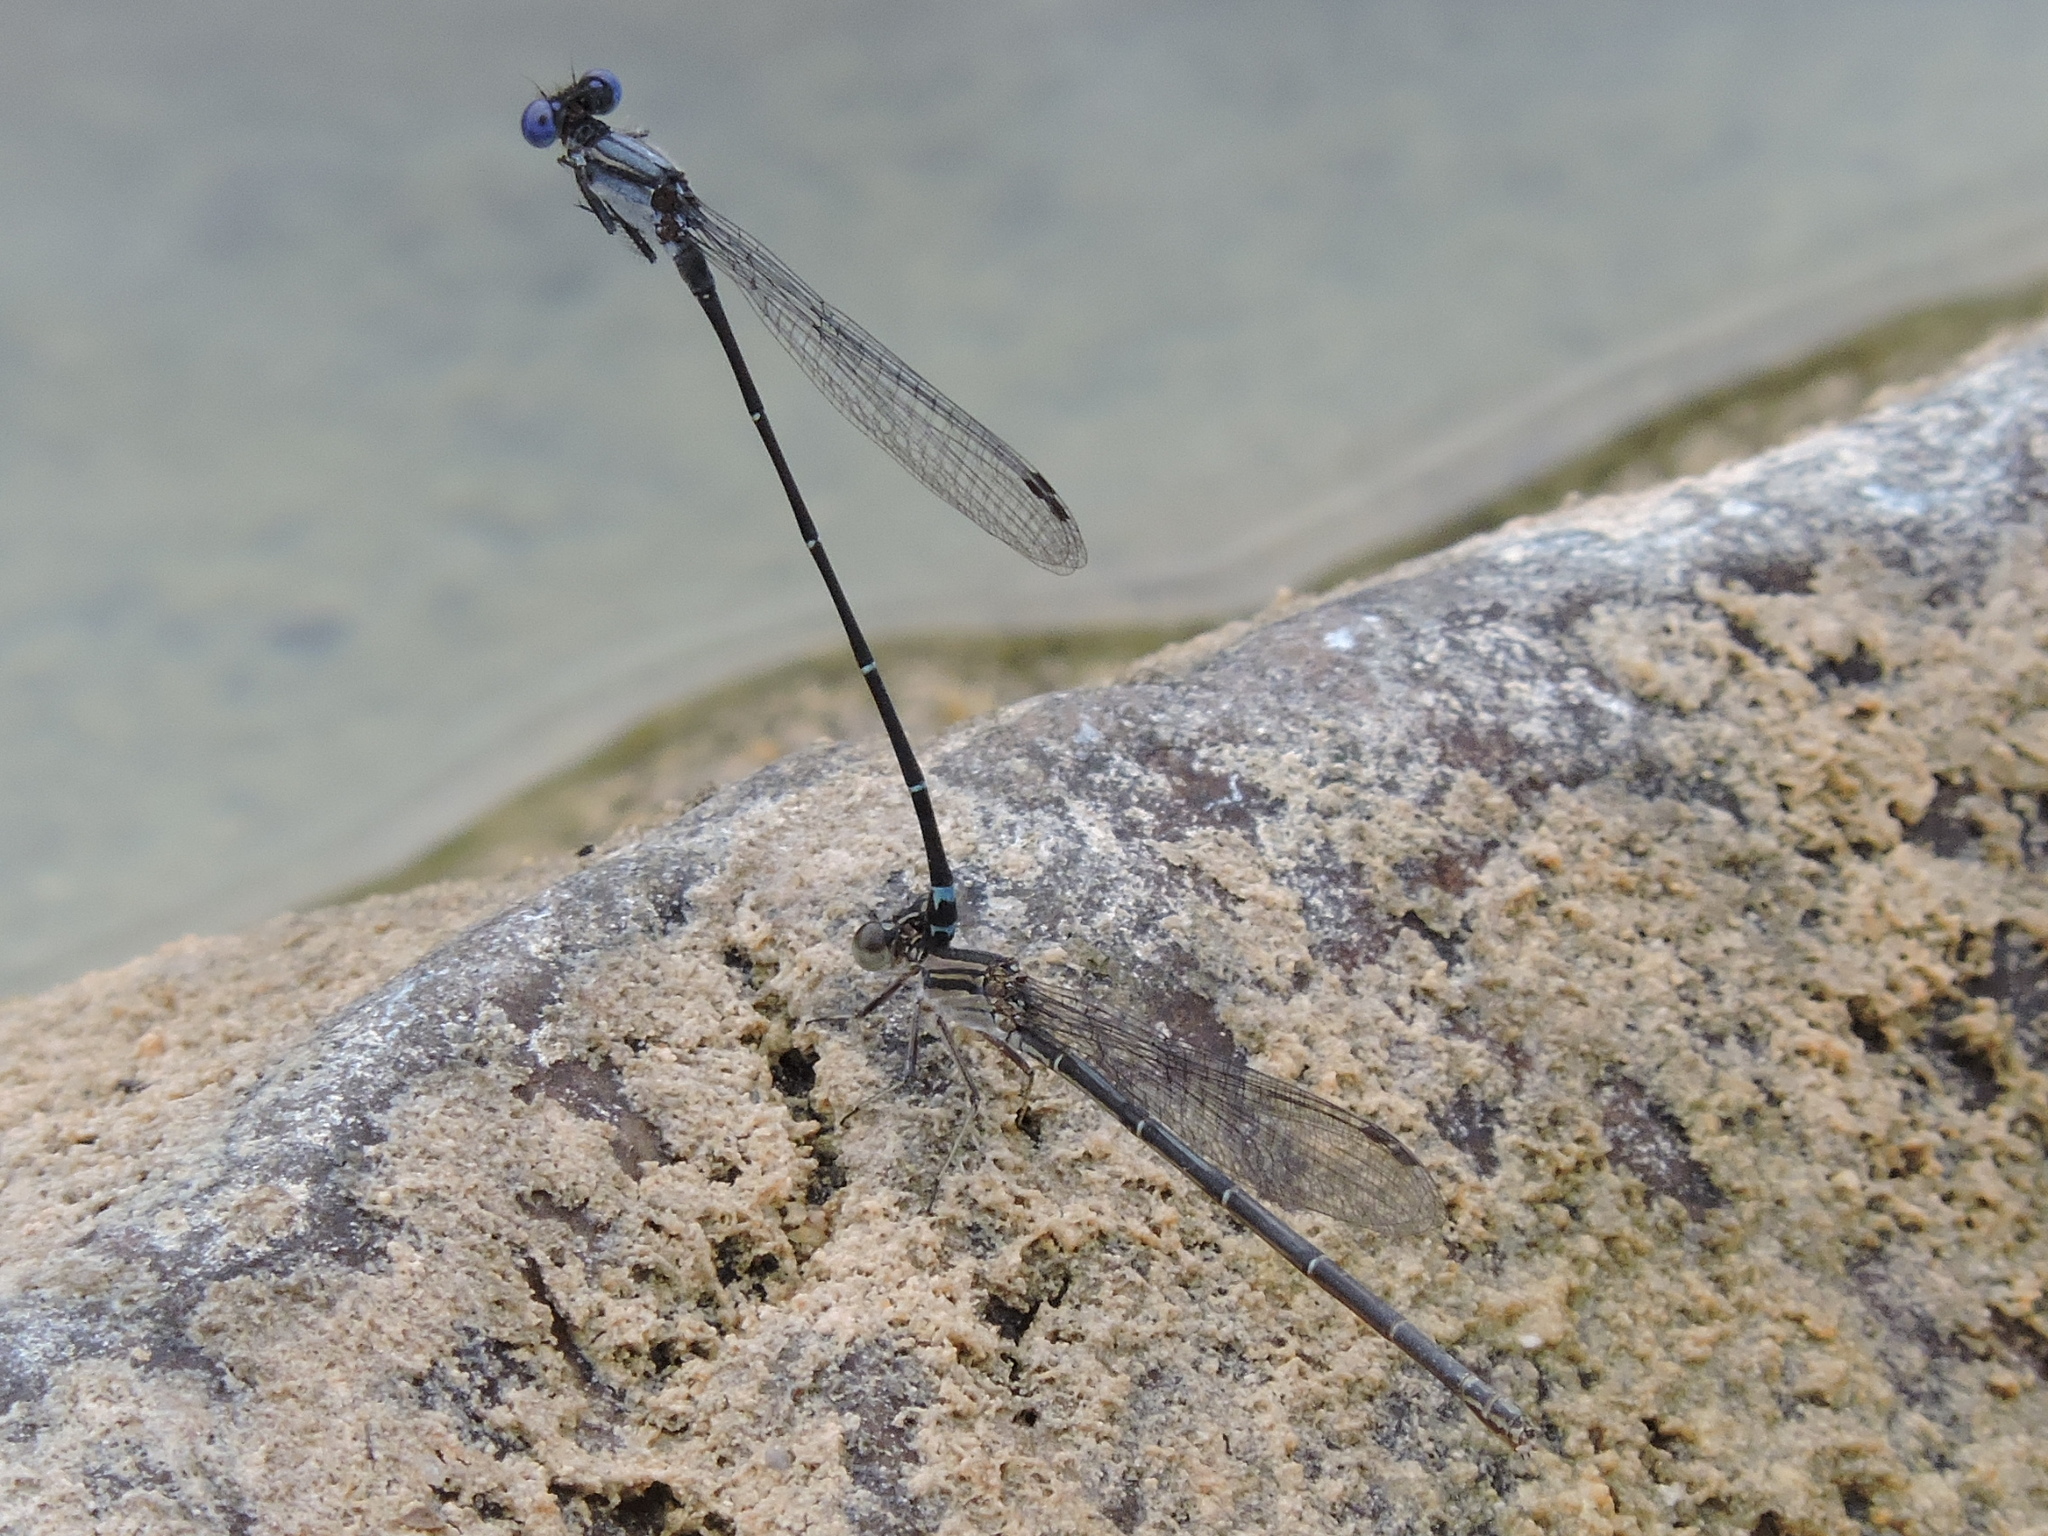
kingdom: Animalia
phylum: Arthropoda
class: Insecta
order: Odonata
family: Coenagrionidae
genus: Argia
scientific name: Argia translata
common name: Dusky dancer
